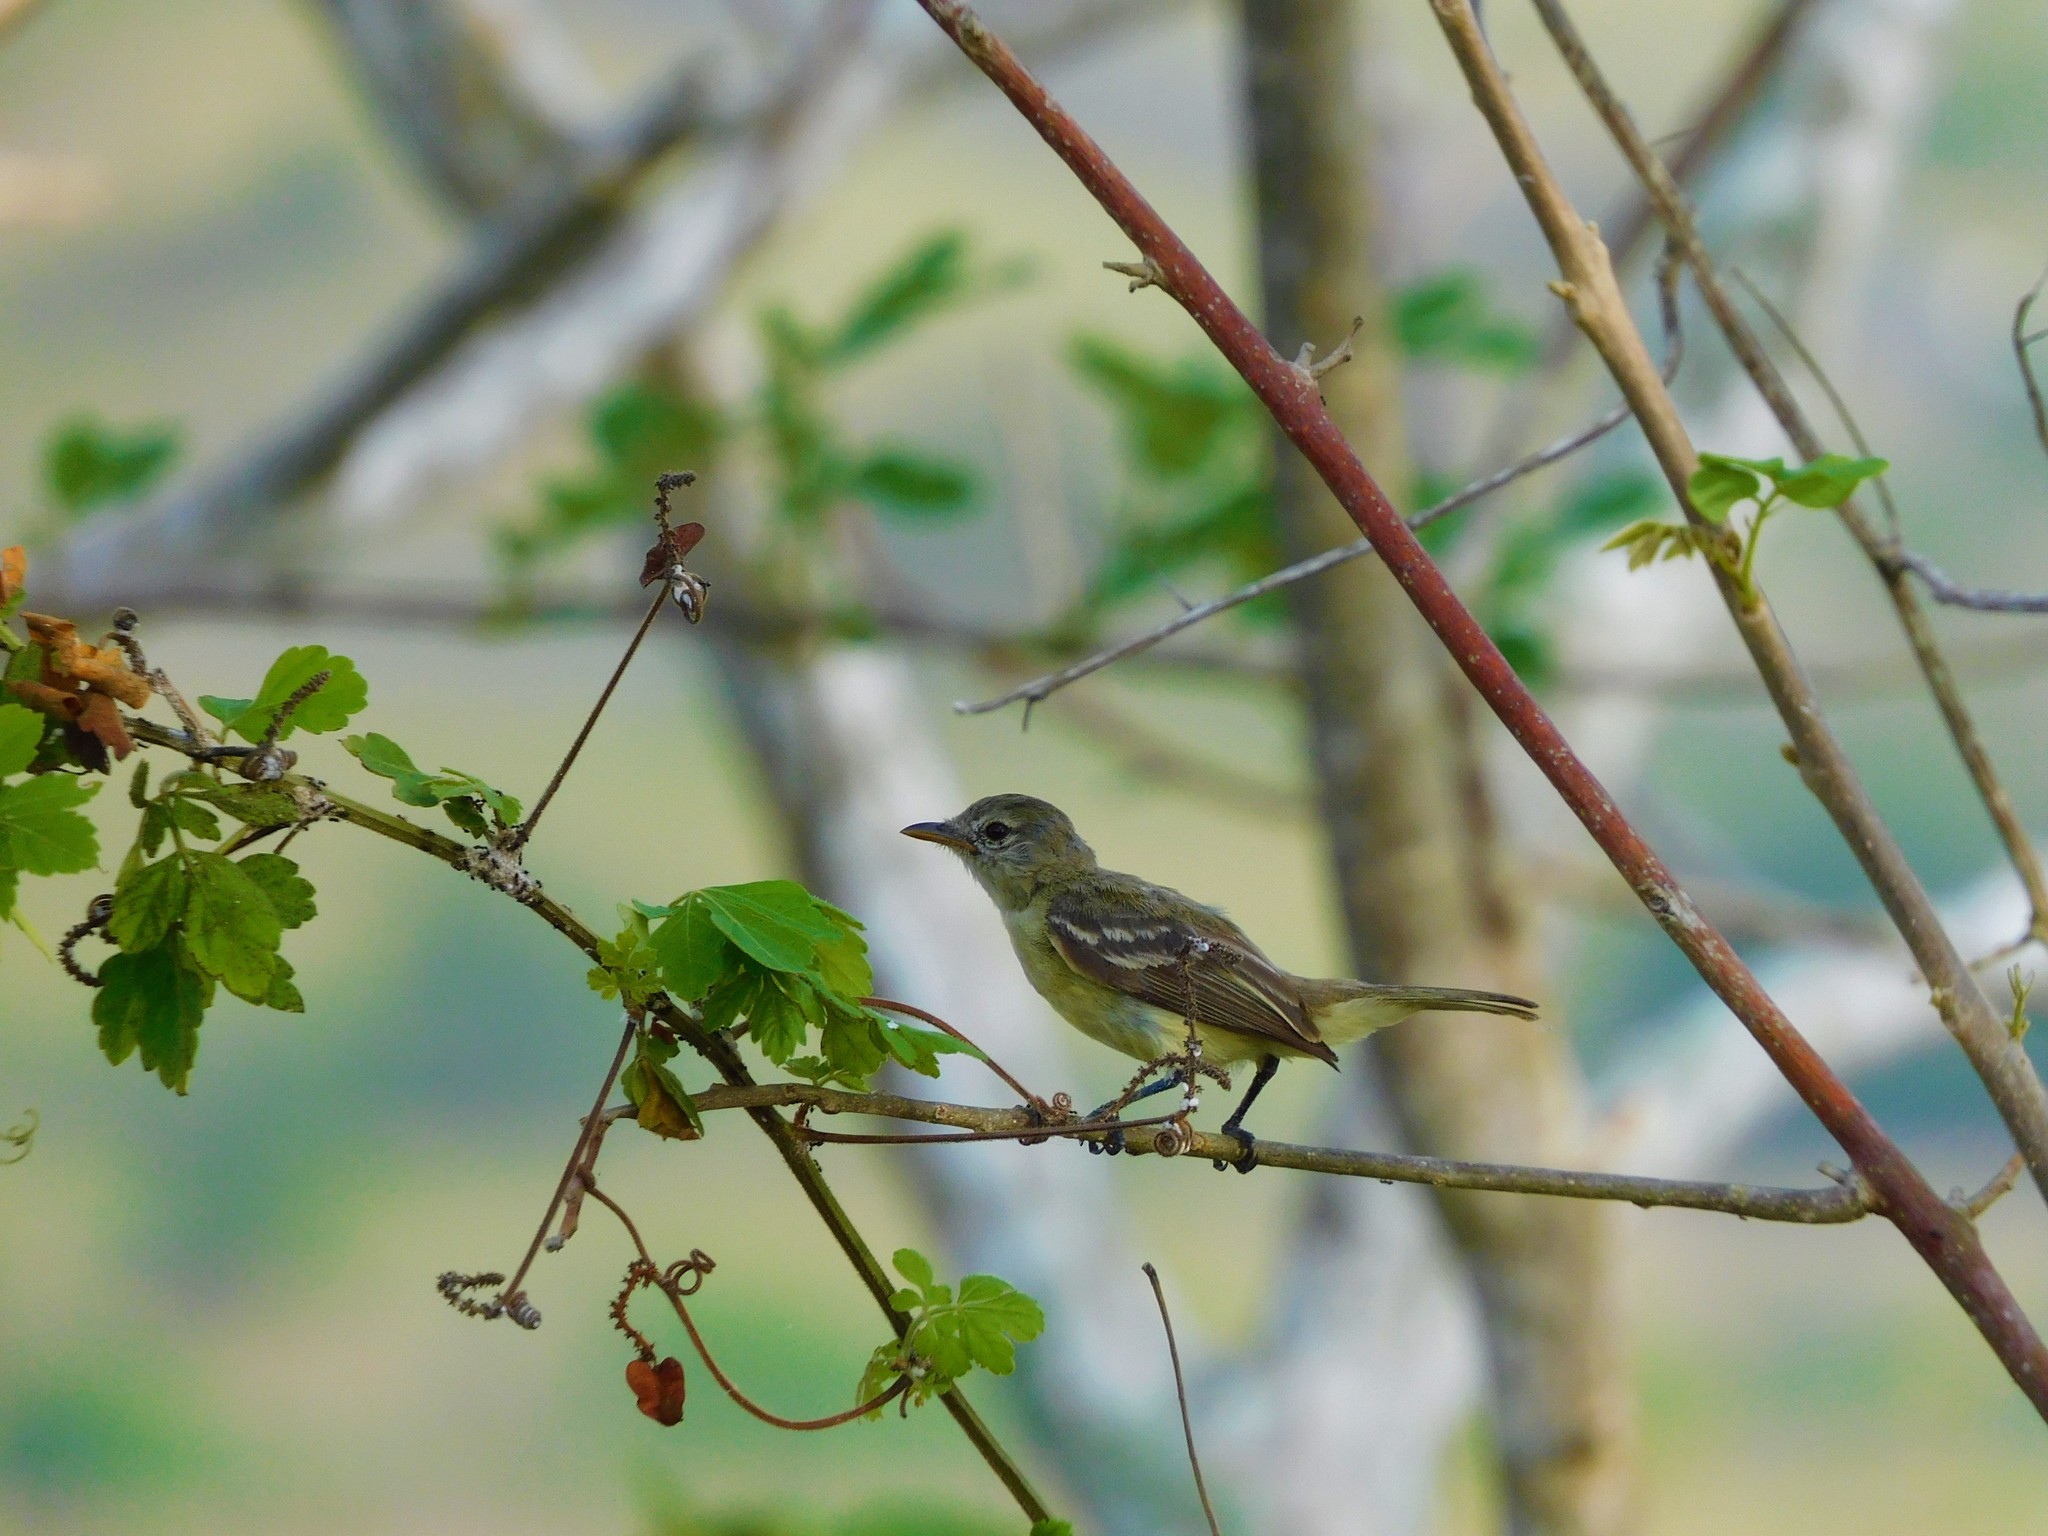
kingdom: Animalia
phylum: Chordata
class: Aves
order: Passeriformes
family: Tyrannidae
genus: Capsiempis
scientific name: Capsiempis flaveola
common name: Yellow tyrannulet
